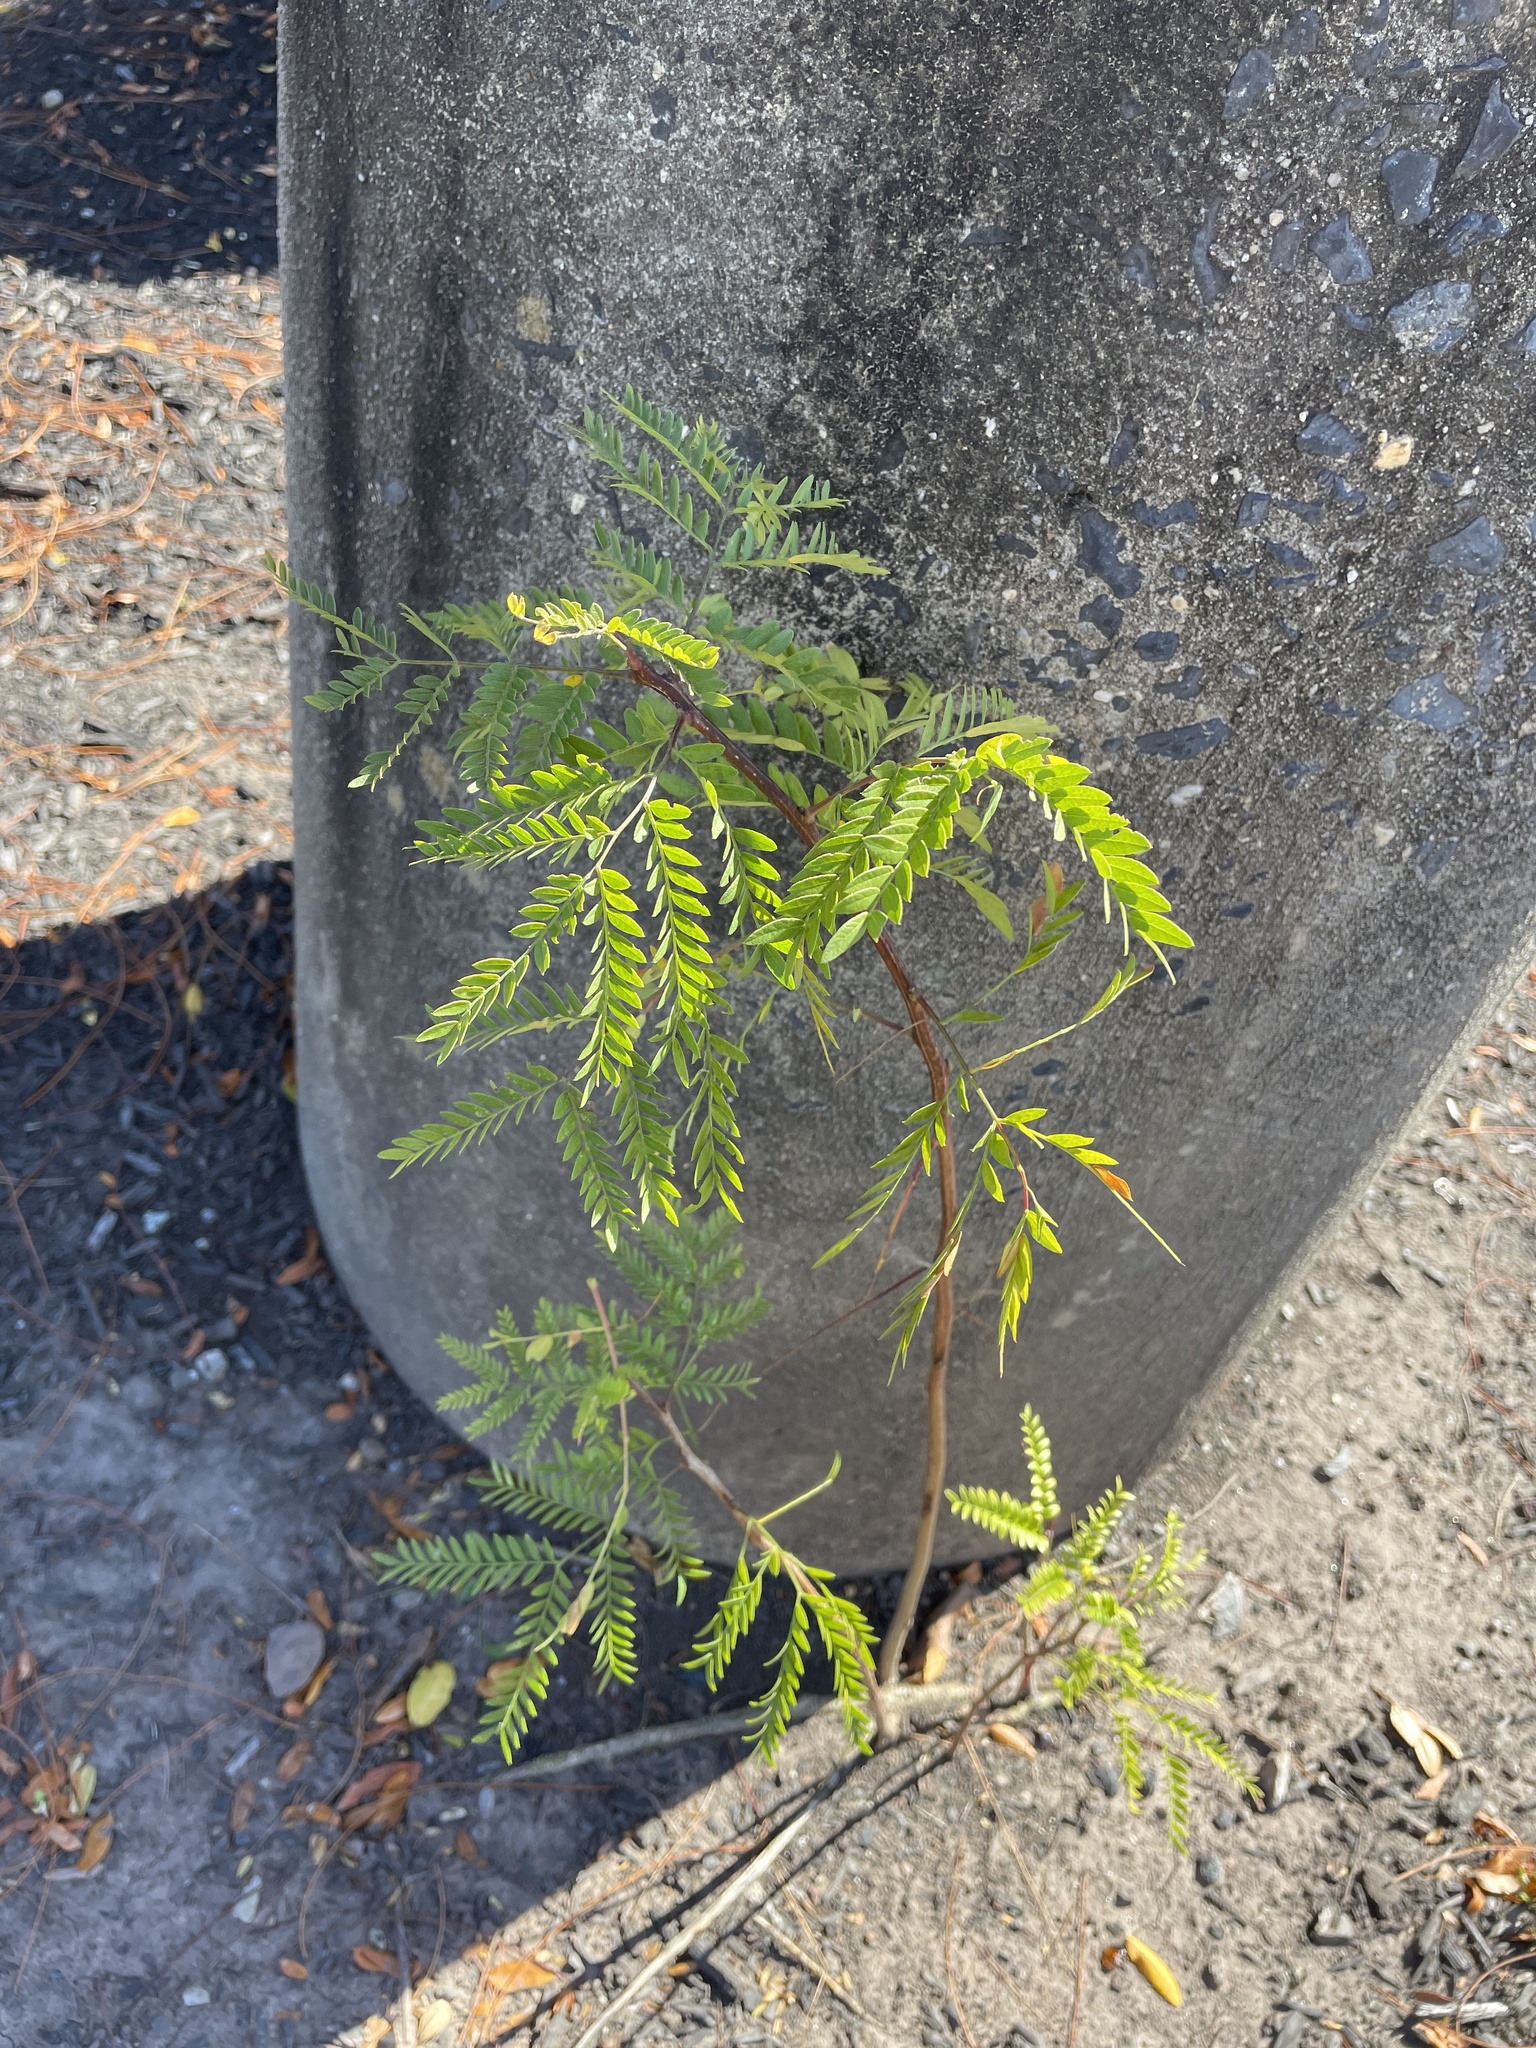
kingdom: Plantae
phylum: Tracheophyta
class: Magnoliopsida
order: Fabales
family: Fabaceae
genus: Gleditsia
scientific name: Gleditsia triacanthos
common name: Common honeylocust
